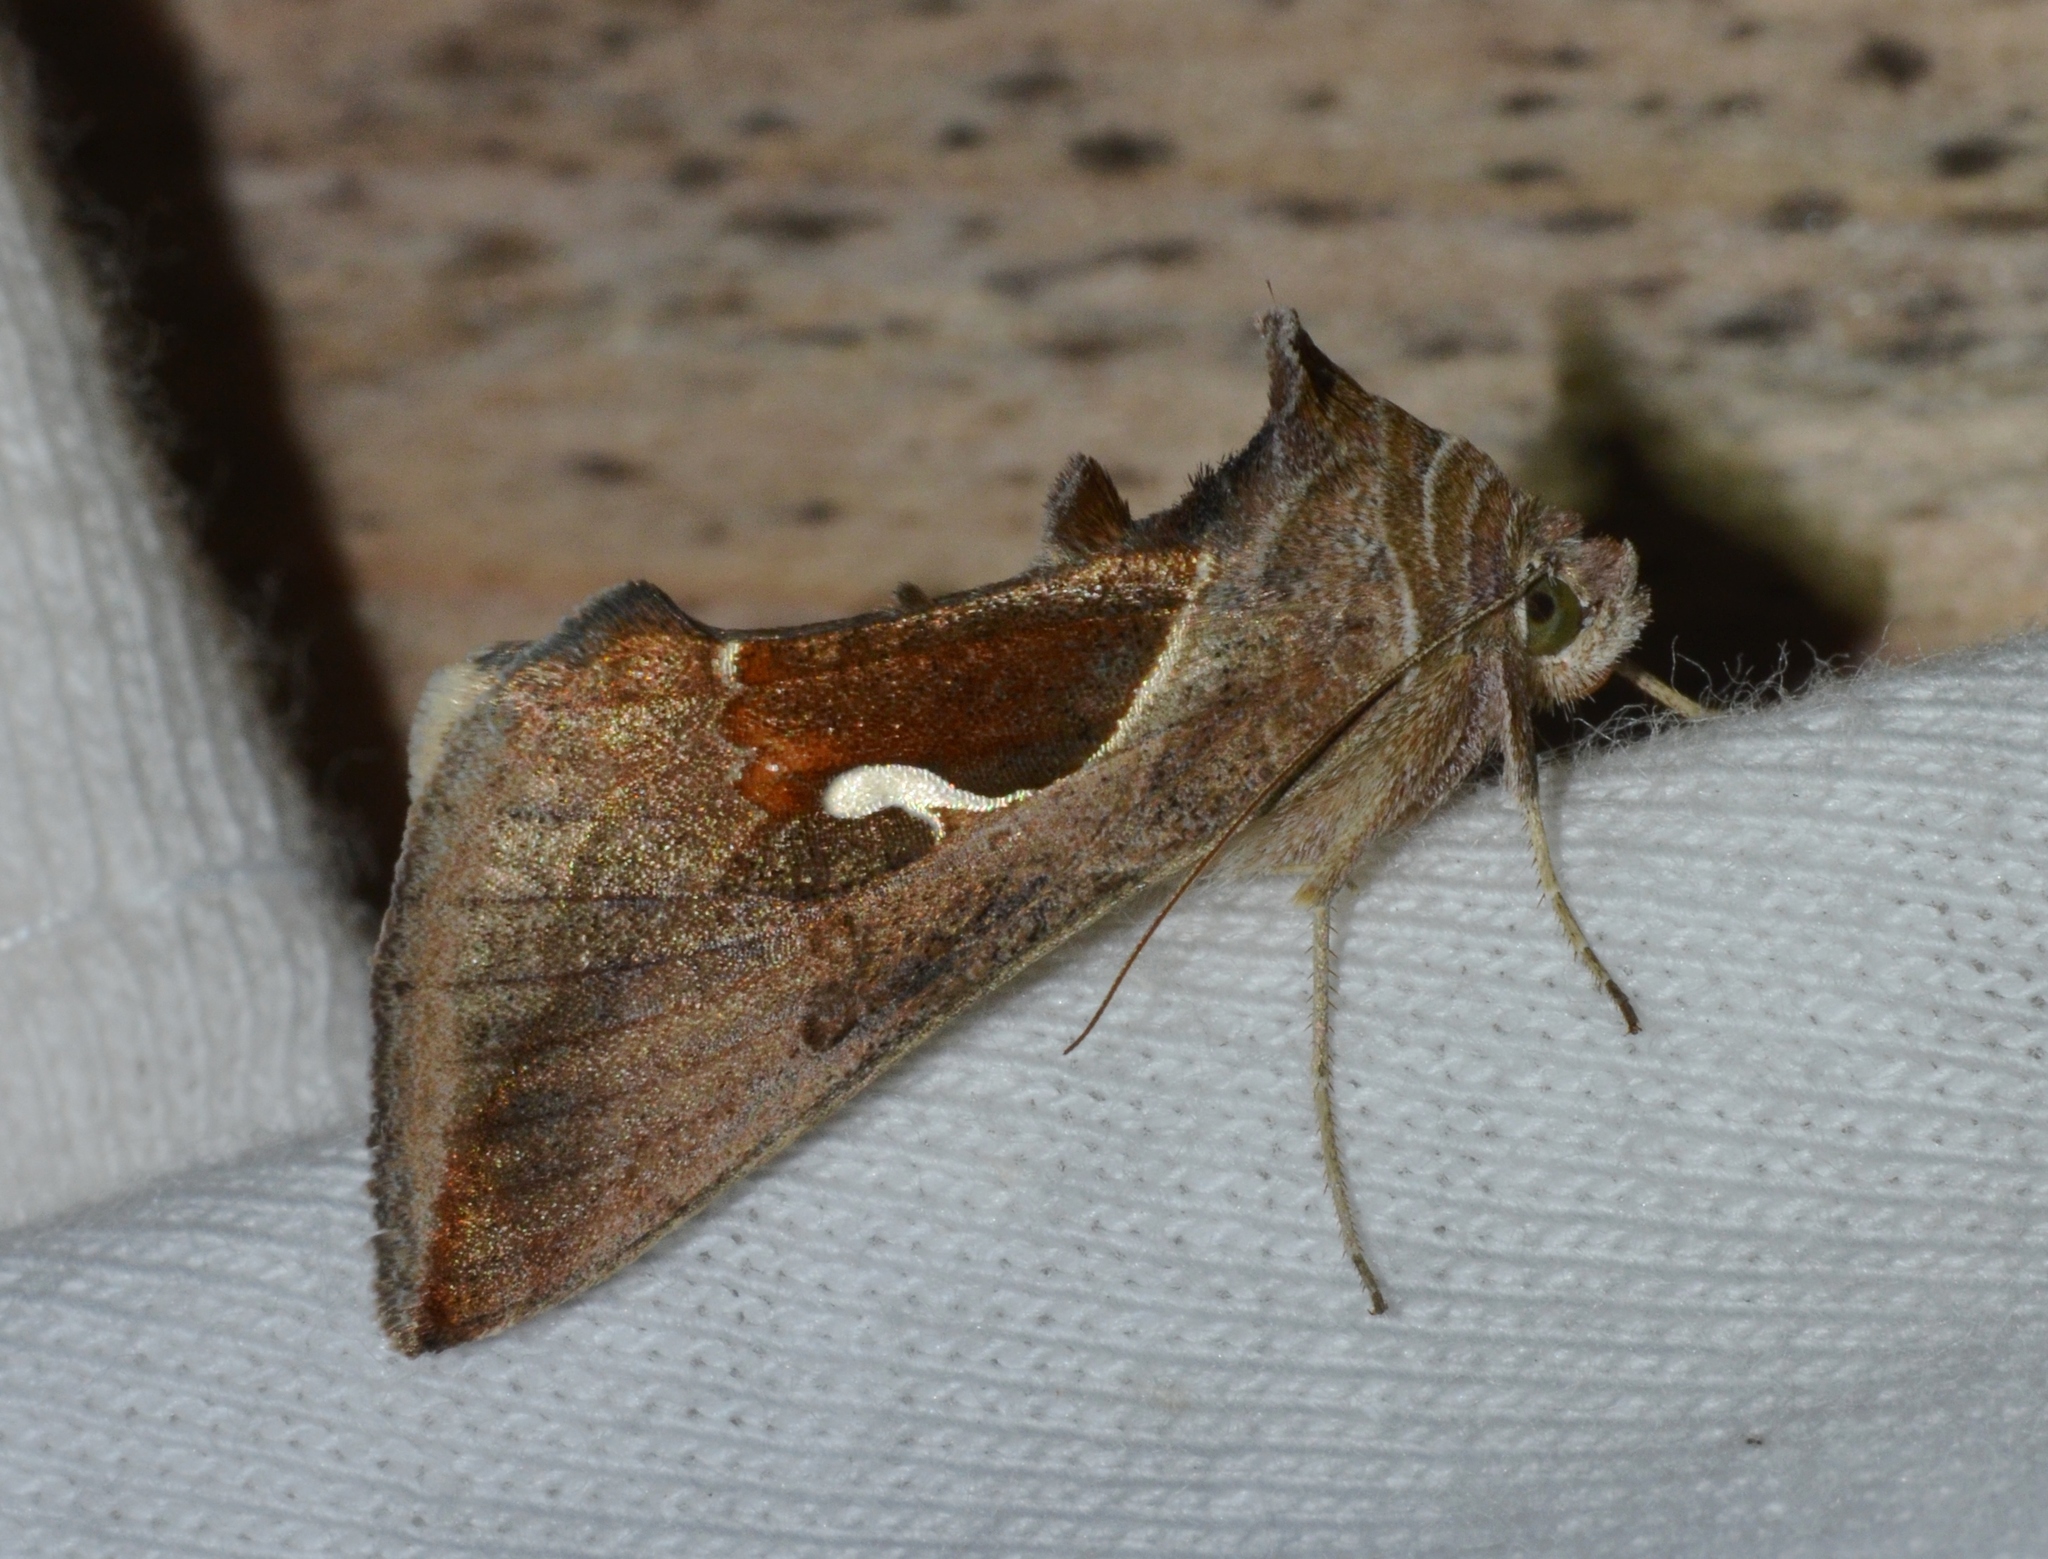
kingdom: Animalia
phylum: Arthropoda
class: Insecta
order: Lepidoptera
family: Noctuidae
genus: Anagrapha
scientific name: Anagrapha falcifera
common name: Celery looper
